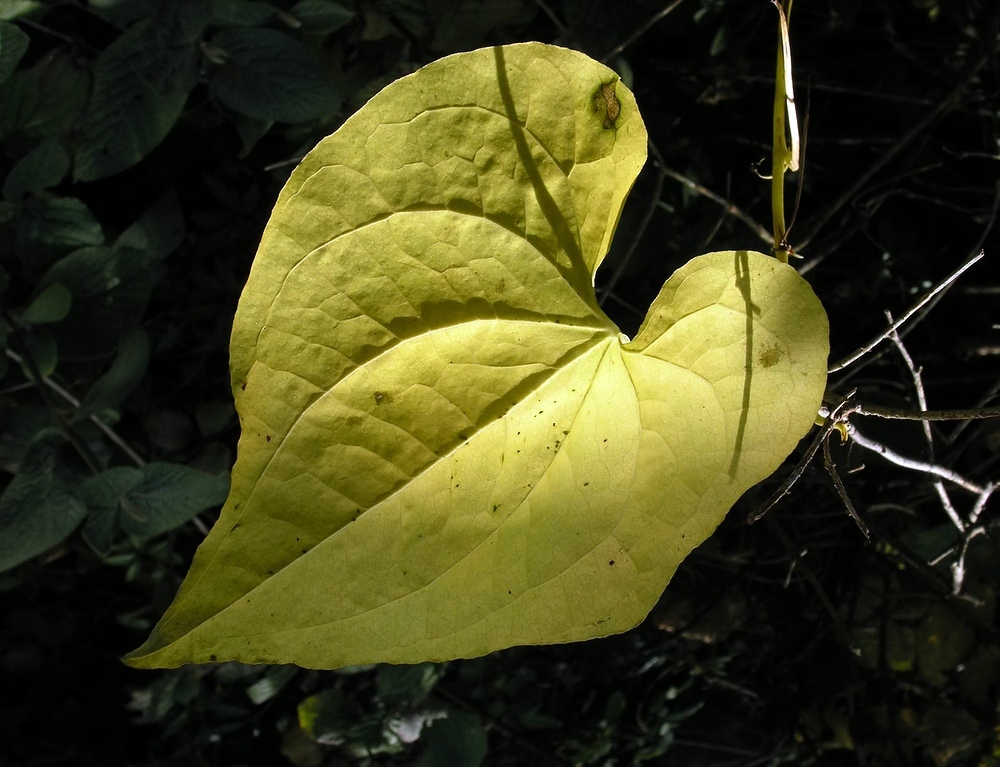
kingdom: Plantae
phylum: Tracheophyta
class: Liliopsida
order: Dioscoreales
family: Dioscoreaceae
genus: Dioscorea
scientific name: Dioscorea communis
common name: Black-bindweed
